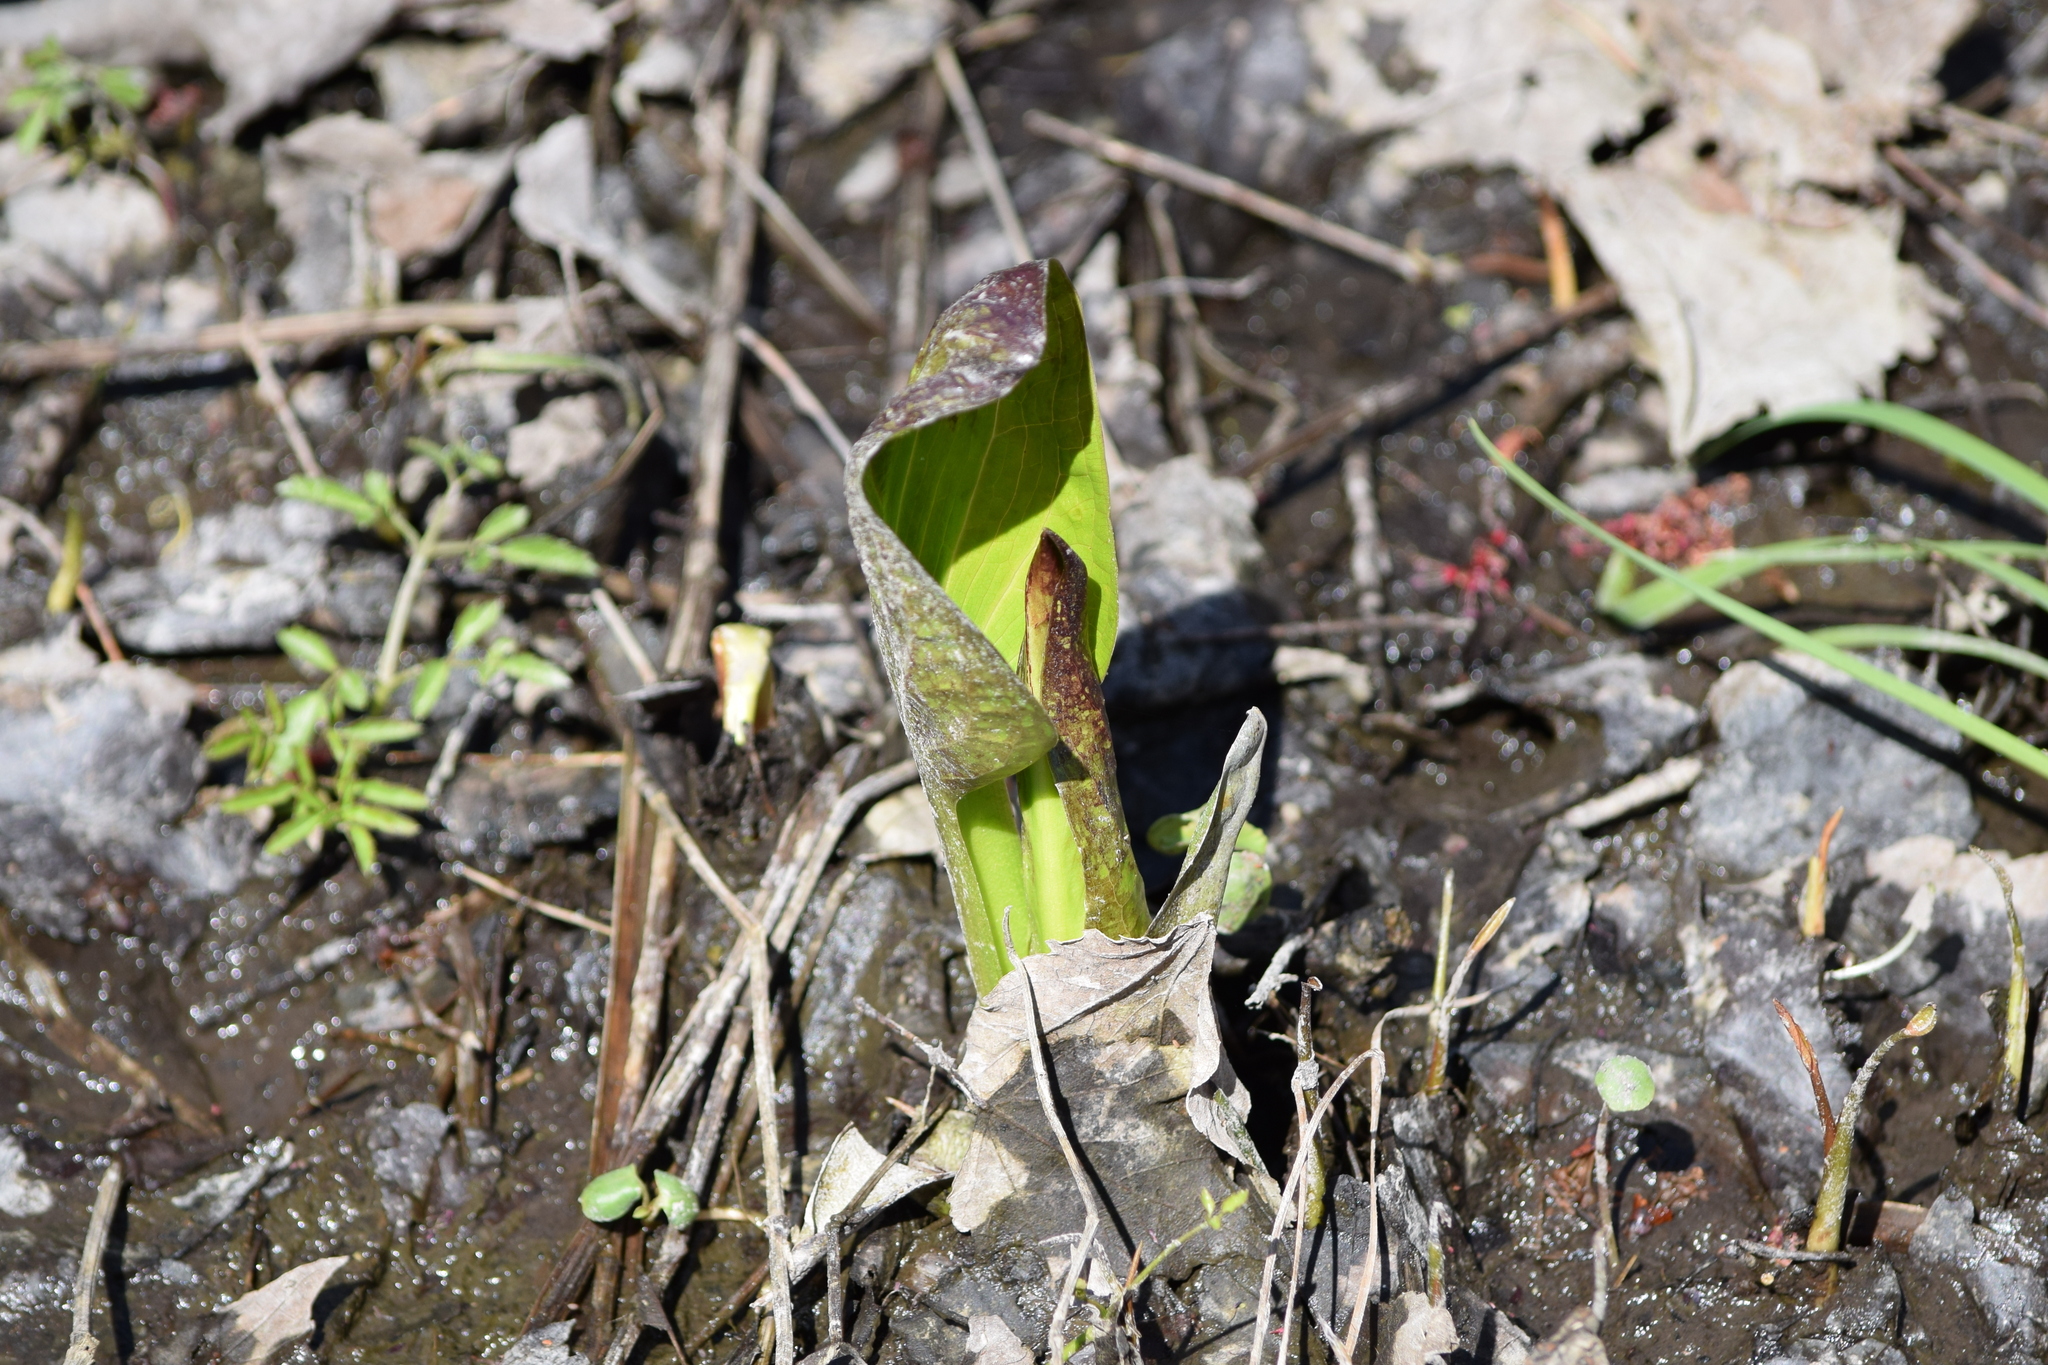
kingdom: Plantae
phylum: Tracheophyta
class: Liliopsida
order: Alismatales
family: Araceae
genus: Symplocarpus
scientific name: Symplocarpus foetidus
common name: Eastern skunk cabbage
